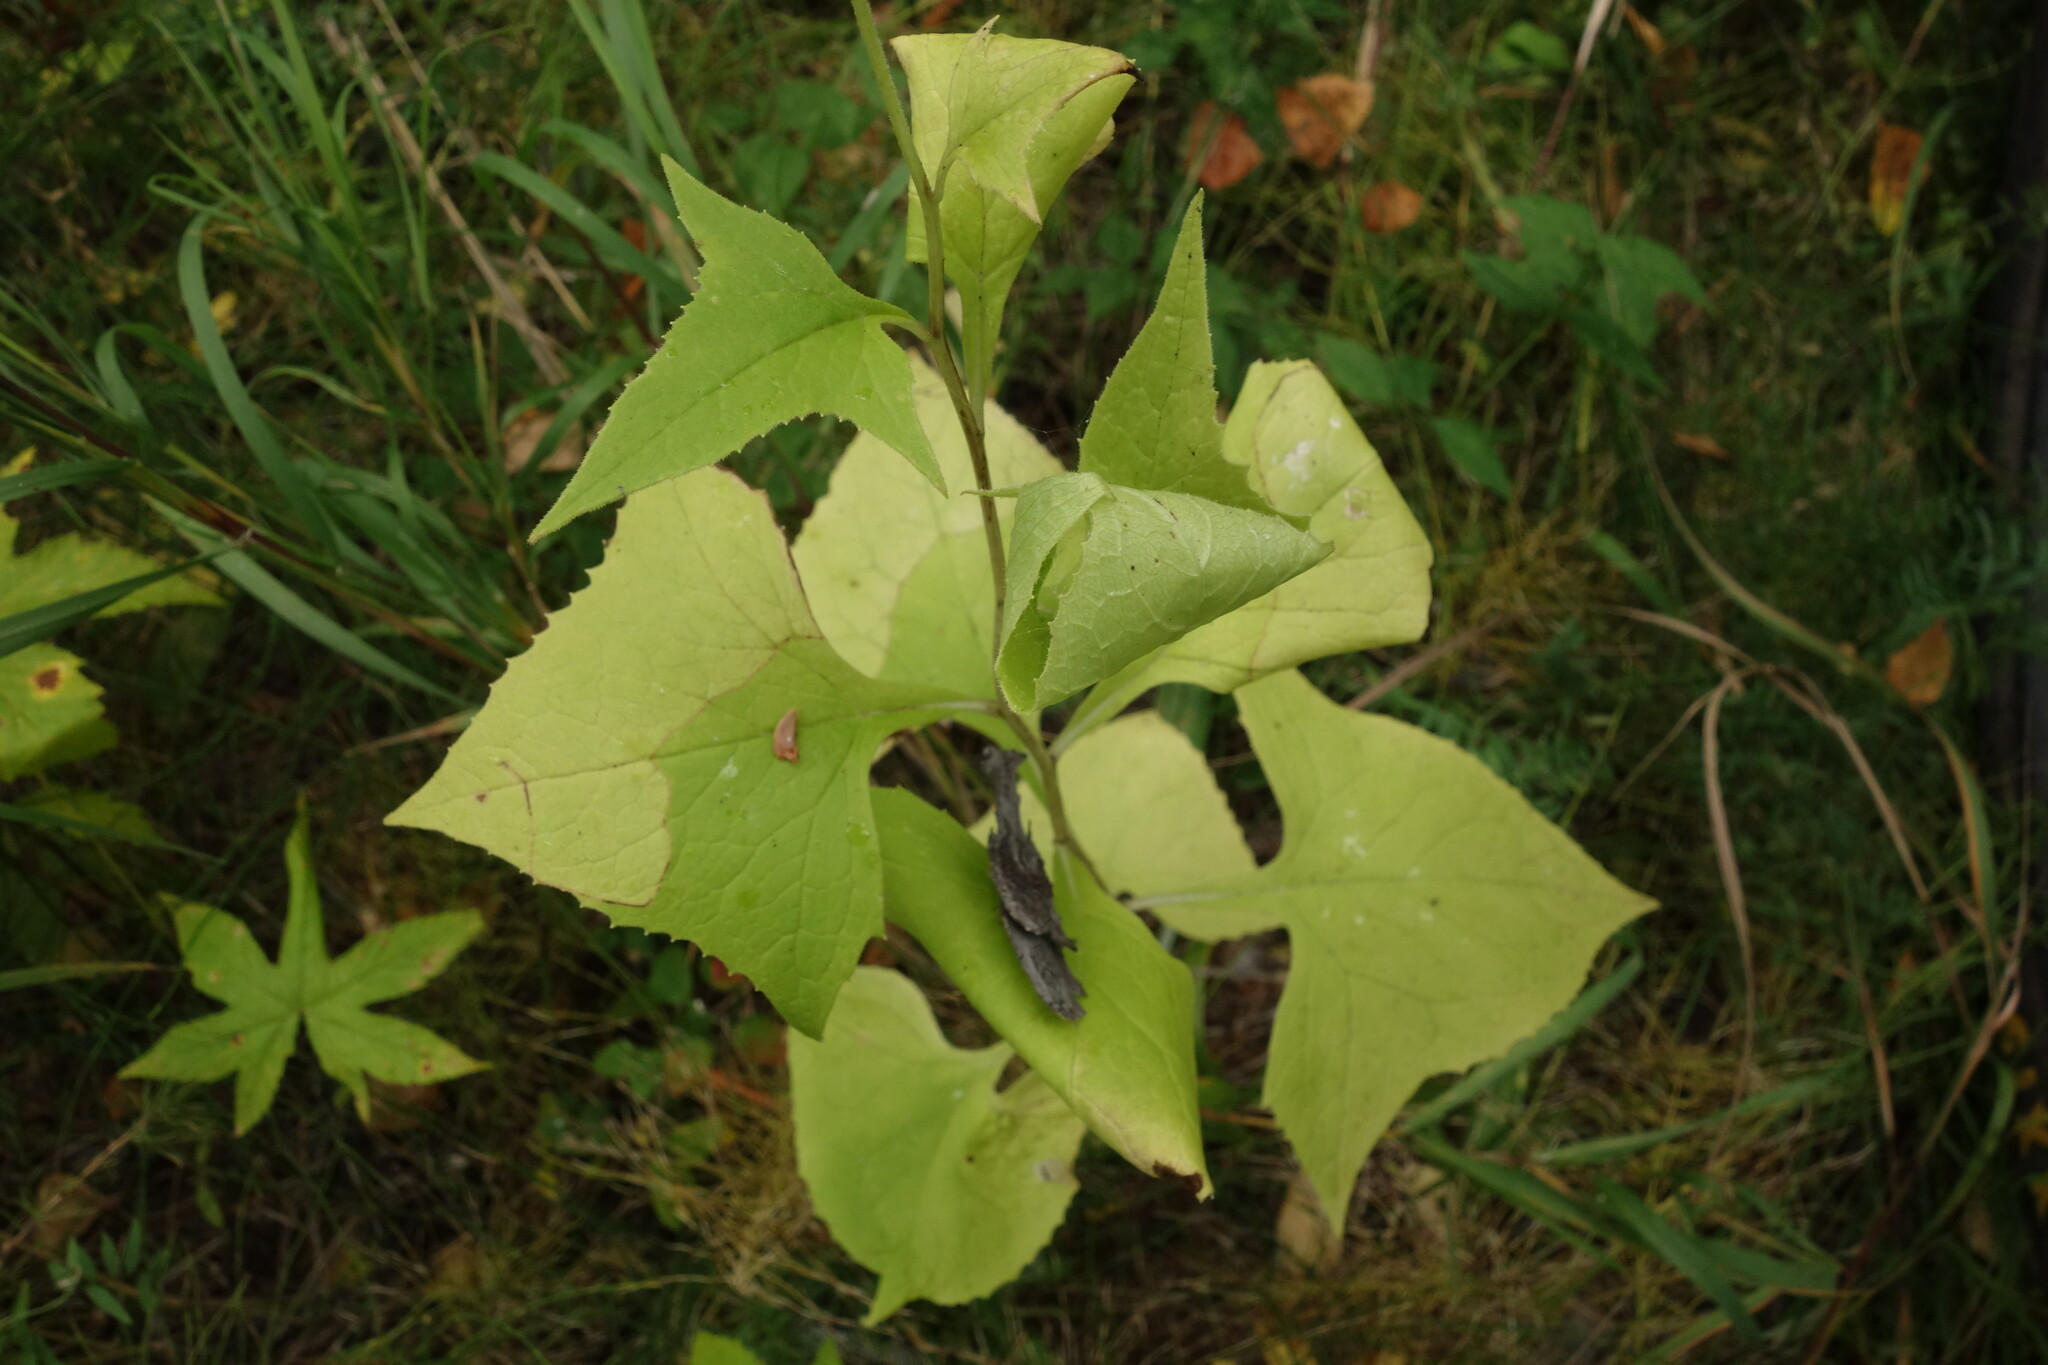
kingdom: Plantae
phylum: Tracheophyta
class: Magnoliopsida
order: Asterales
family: Asteraceae
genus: Parasenecio
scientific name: Parasenecio hastatus
